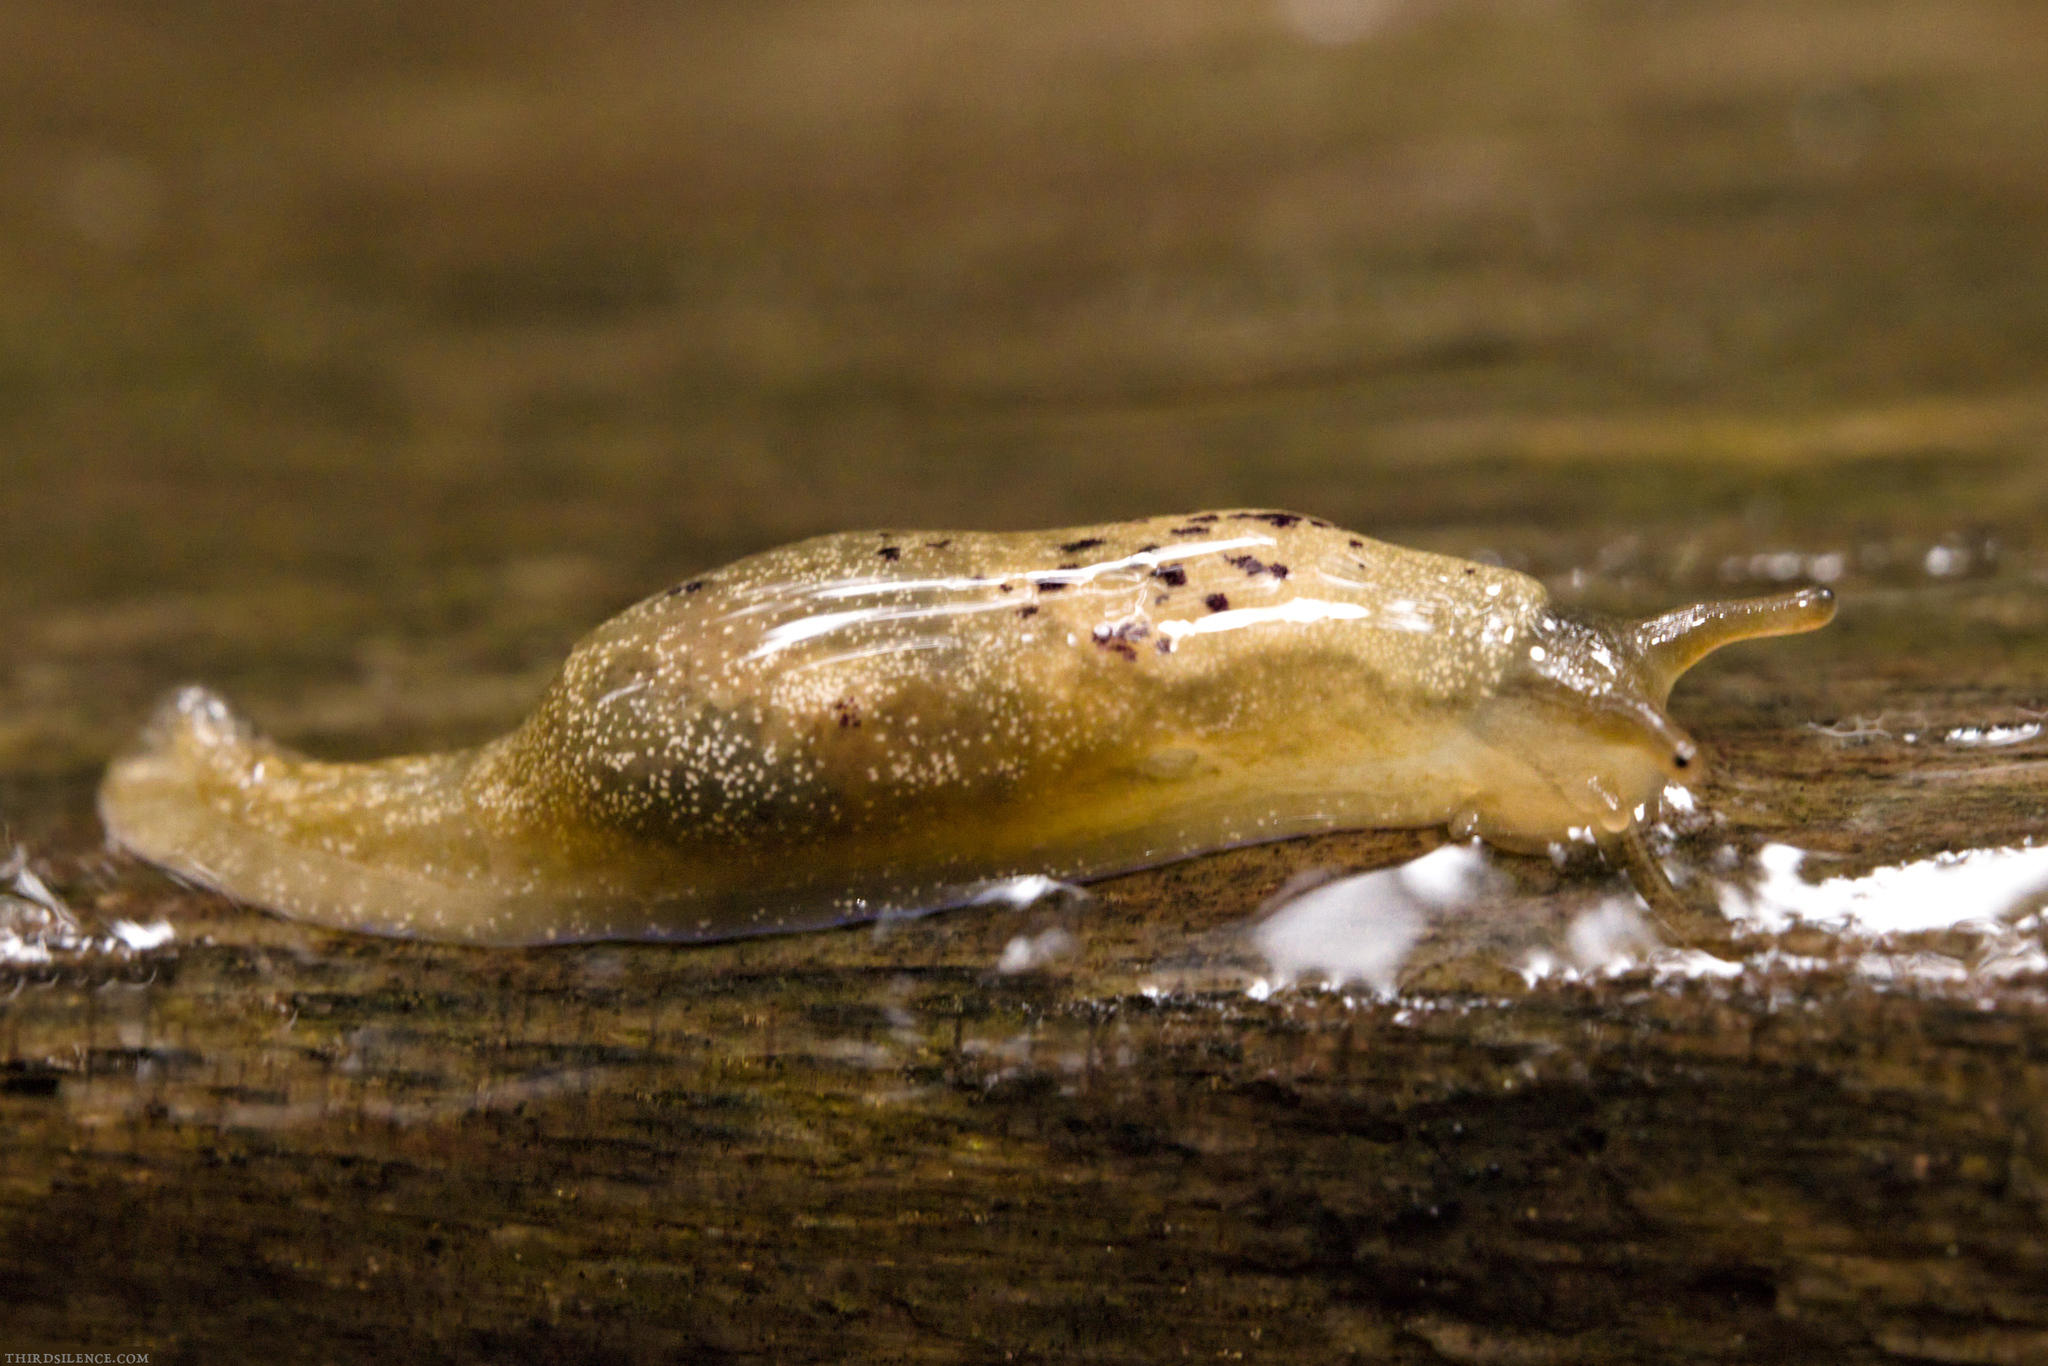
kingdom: Animalia
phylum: Mollusca
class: Gastropoda
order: Stylommatophora
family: Cystopeltidae
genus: Cystopelta
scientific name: Cystopelta purpurea
